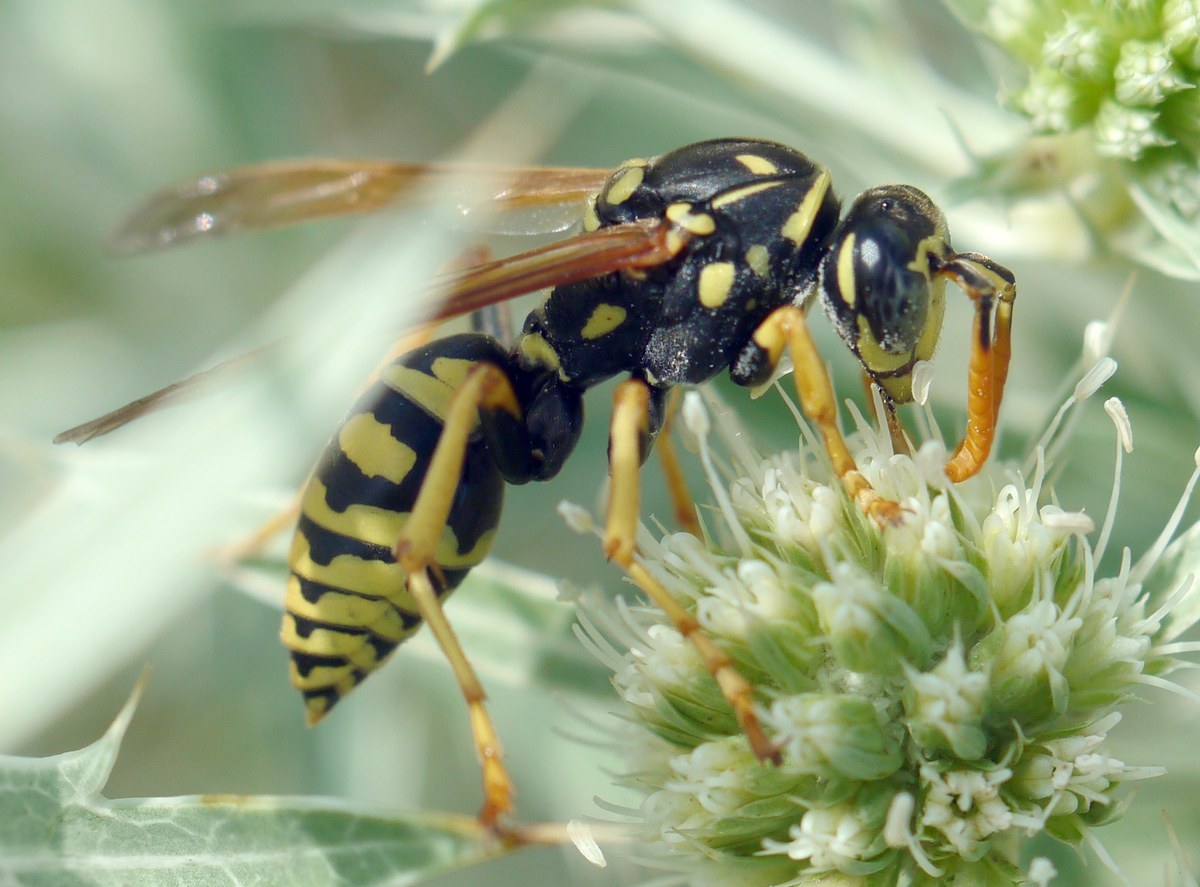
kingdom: Animalia
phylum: Arthropoda
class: Insecta
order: Hymenoptera
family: Eumenidae
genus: Polistes
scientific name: Polistes dominula
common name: Paper wasp
